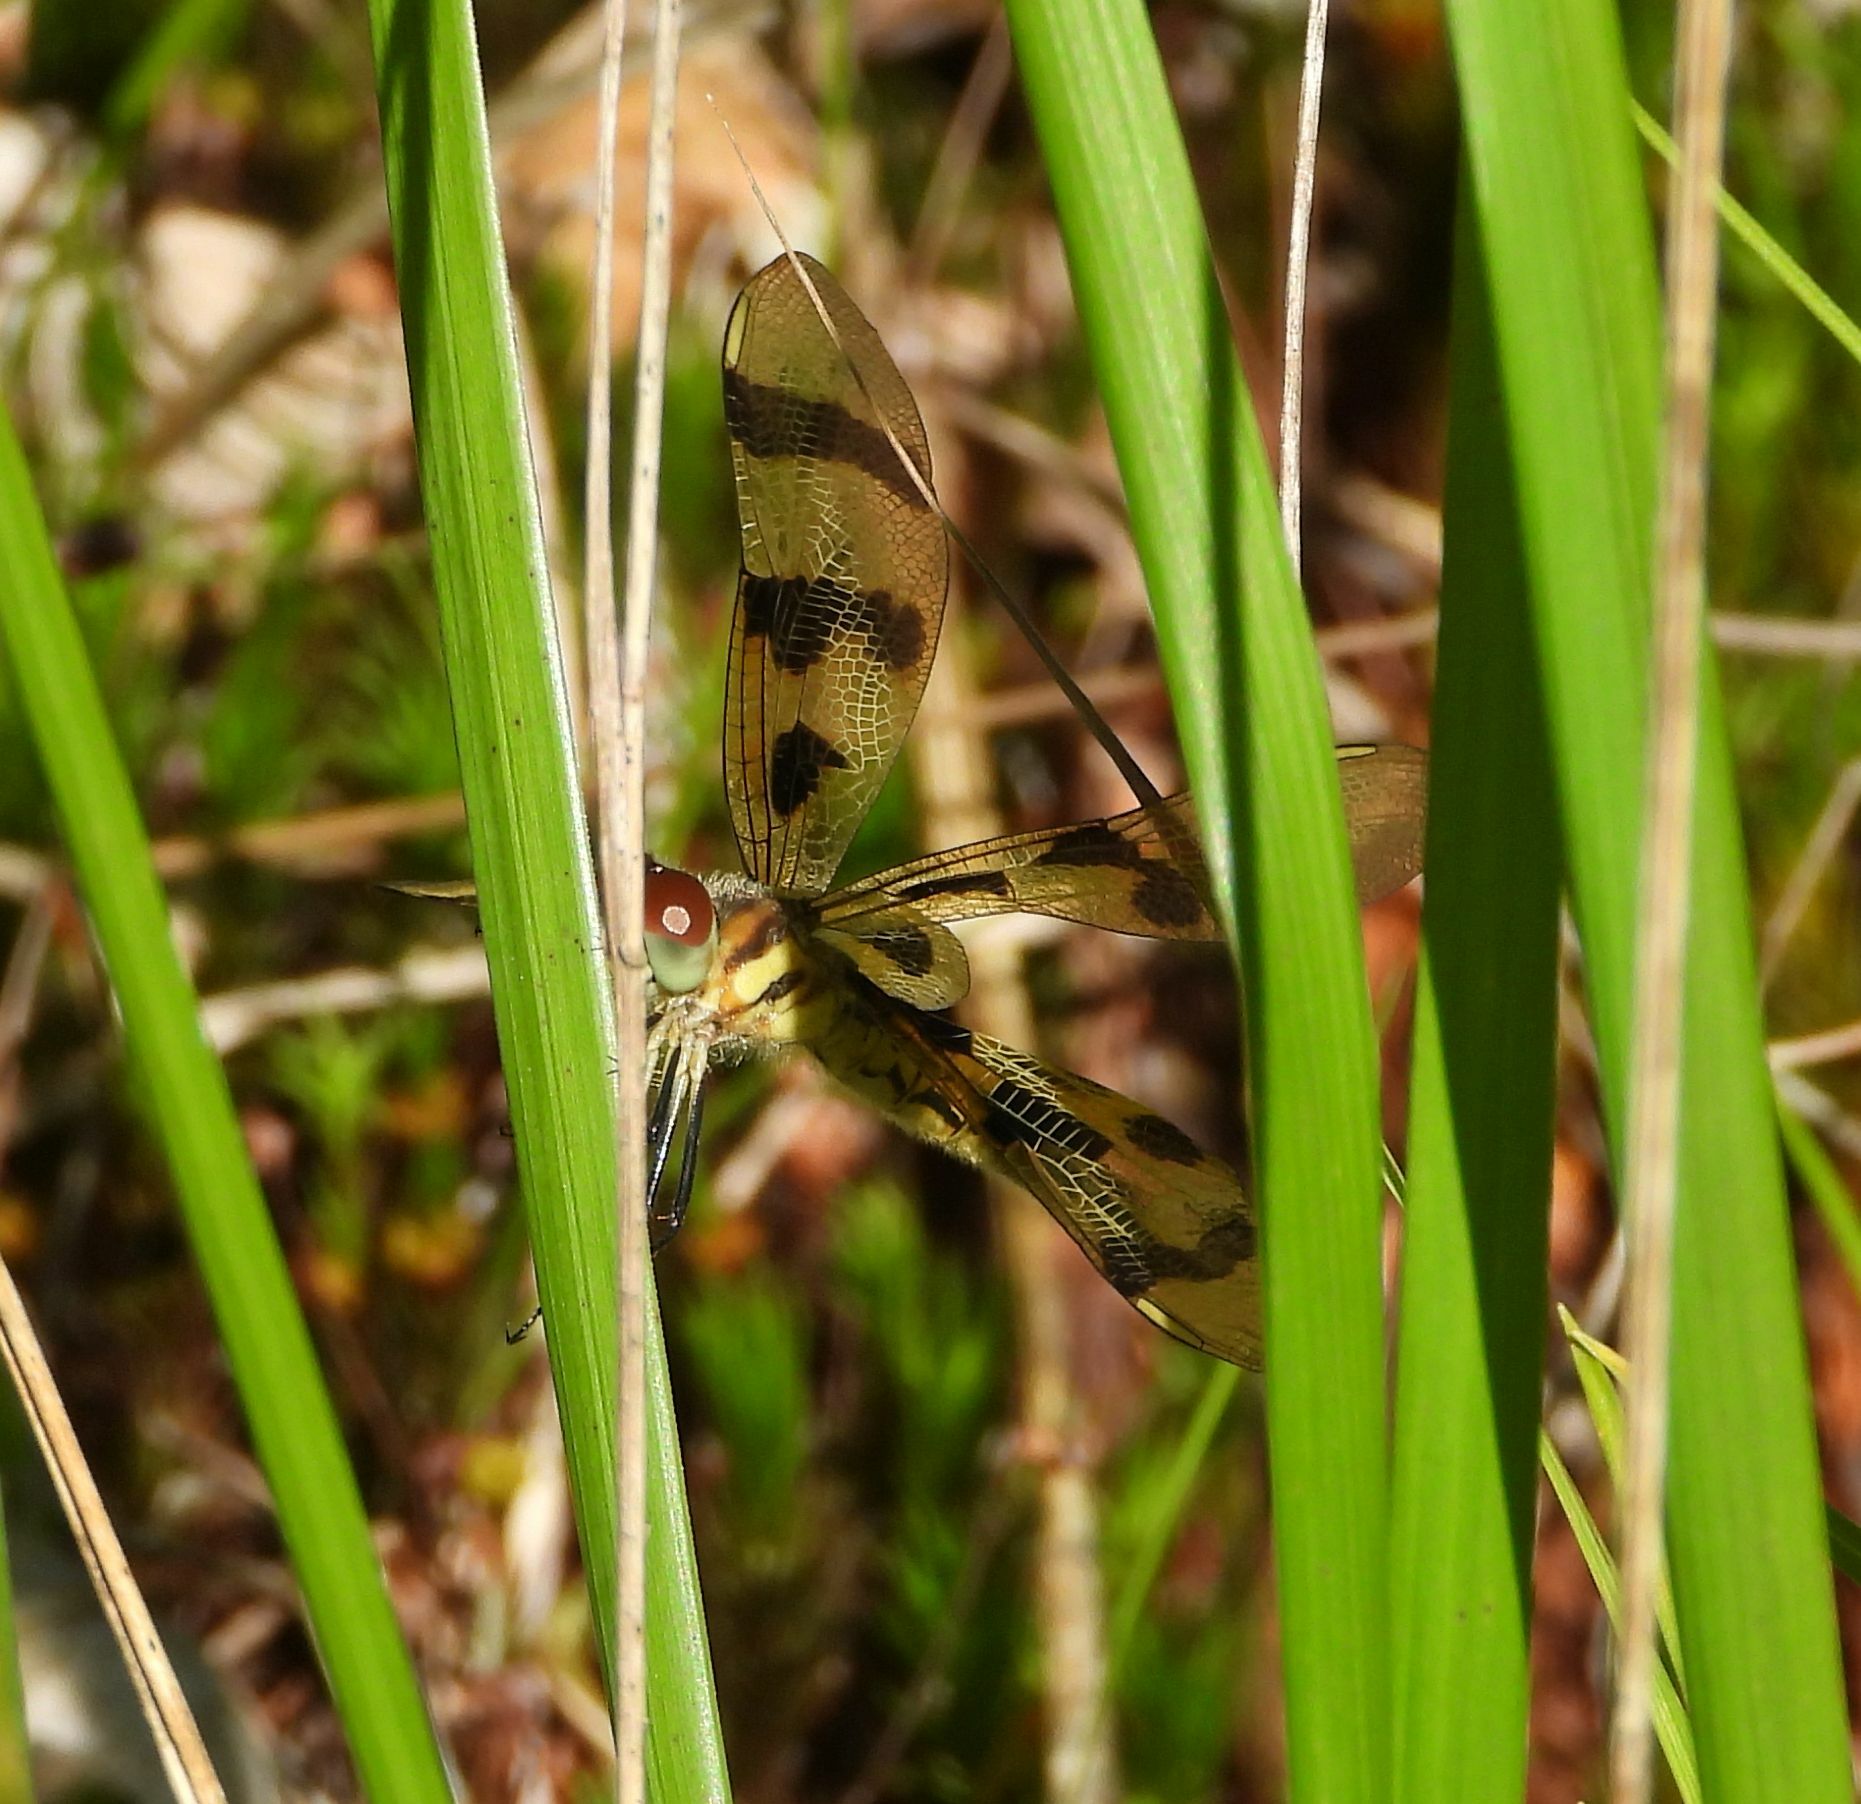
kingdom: Animalia
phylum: Arthropoda
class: Insecta
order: Odonata
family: Libellulidae
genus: Celithemis
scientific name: Celithemis eponina
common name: Halloween pennant
